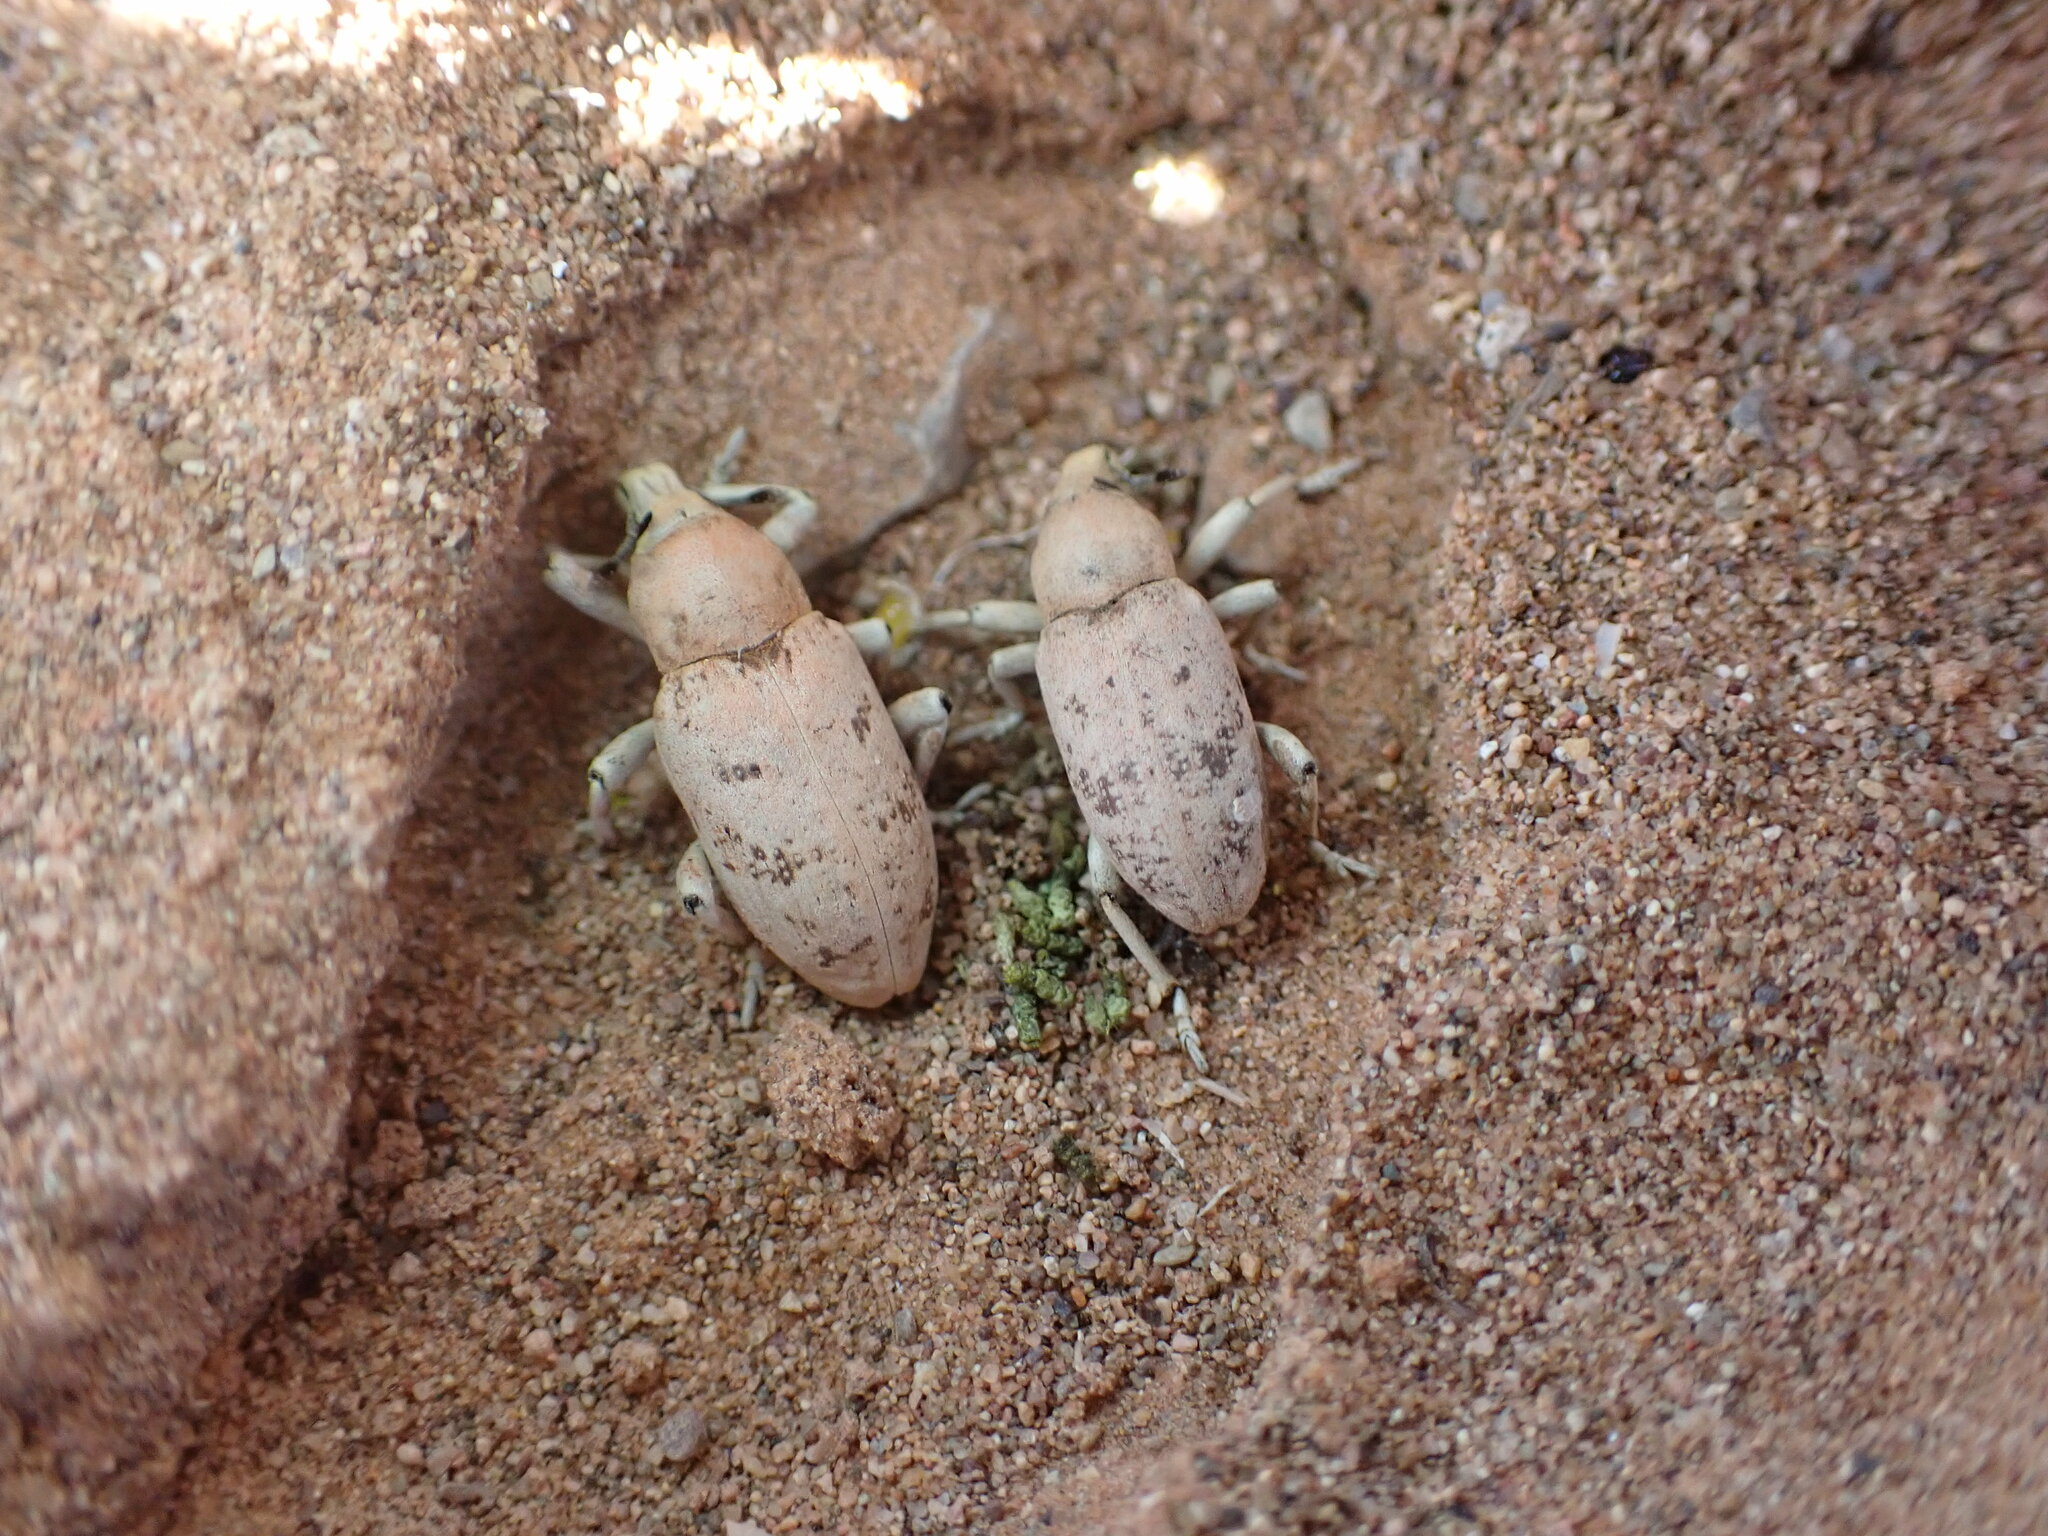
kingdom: Animalia
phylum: Arthropoda
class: Insecta
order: Coleoptera
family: Curculionidae
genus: Pycnodactylopsis
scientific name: Pycnodactylopsis tomentosa
